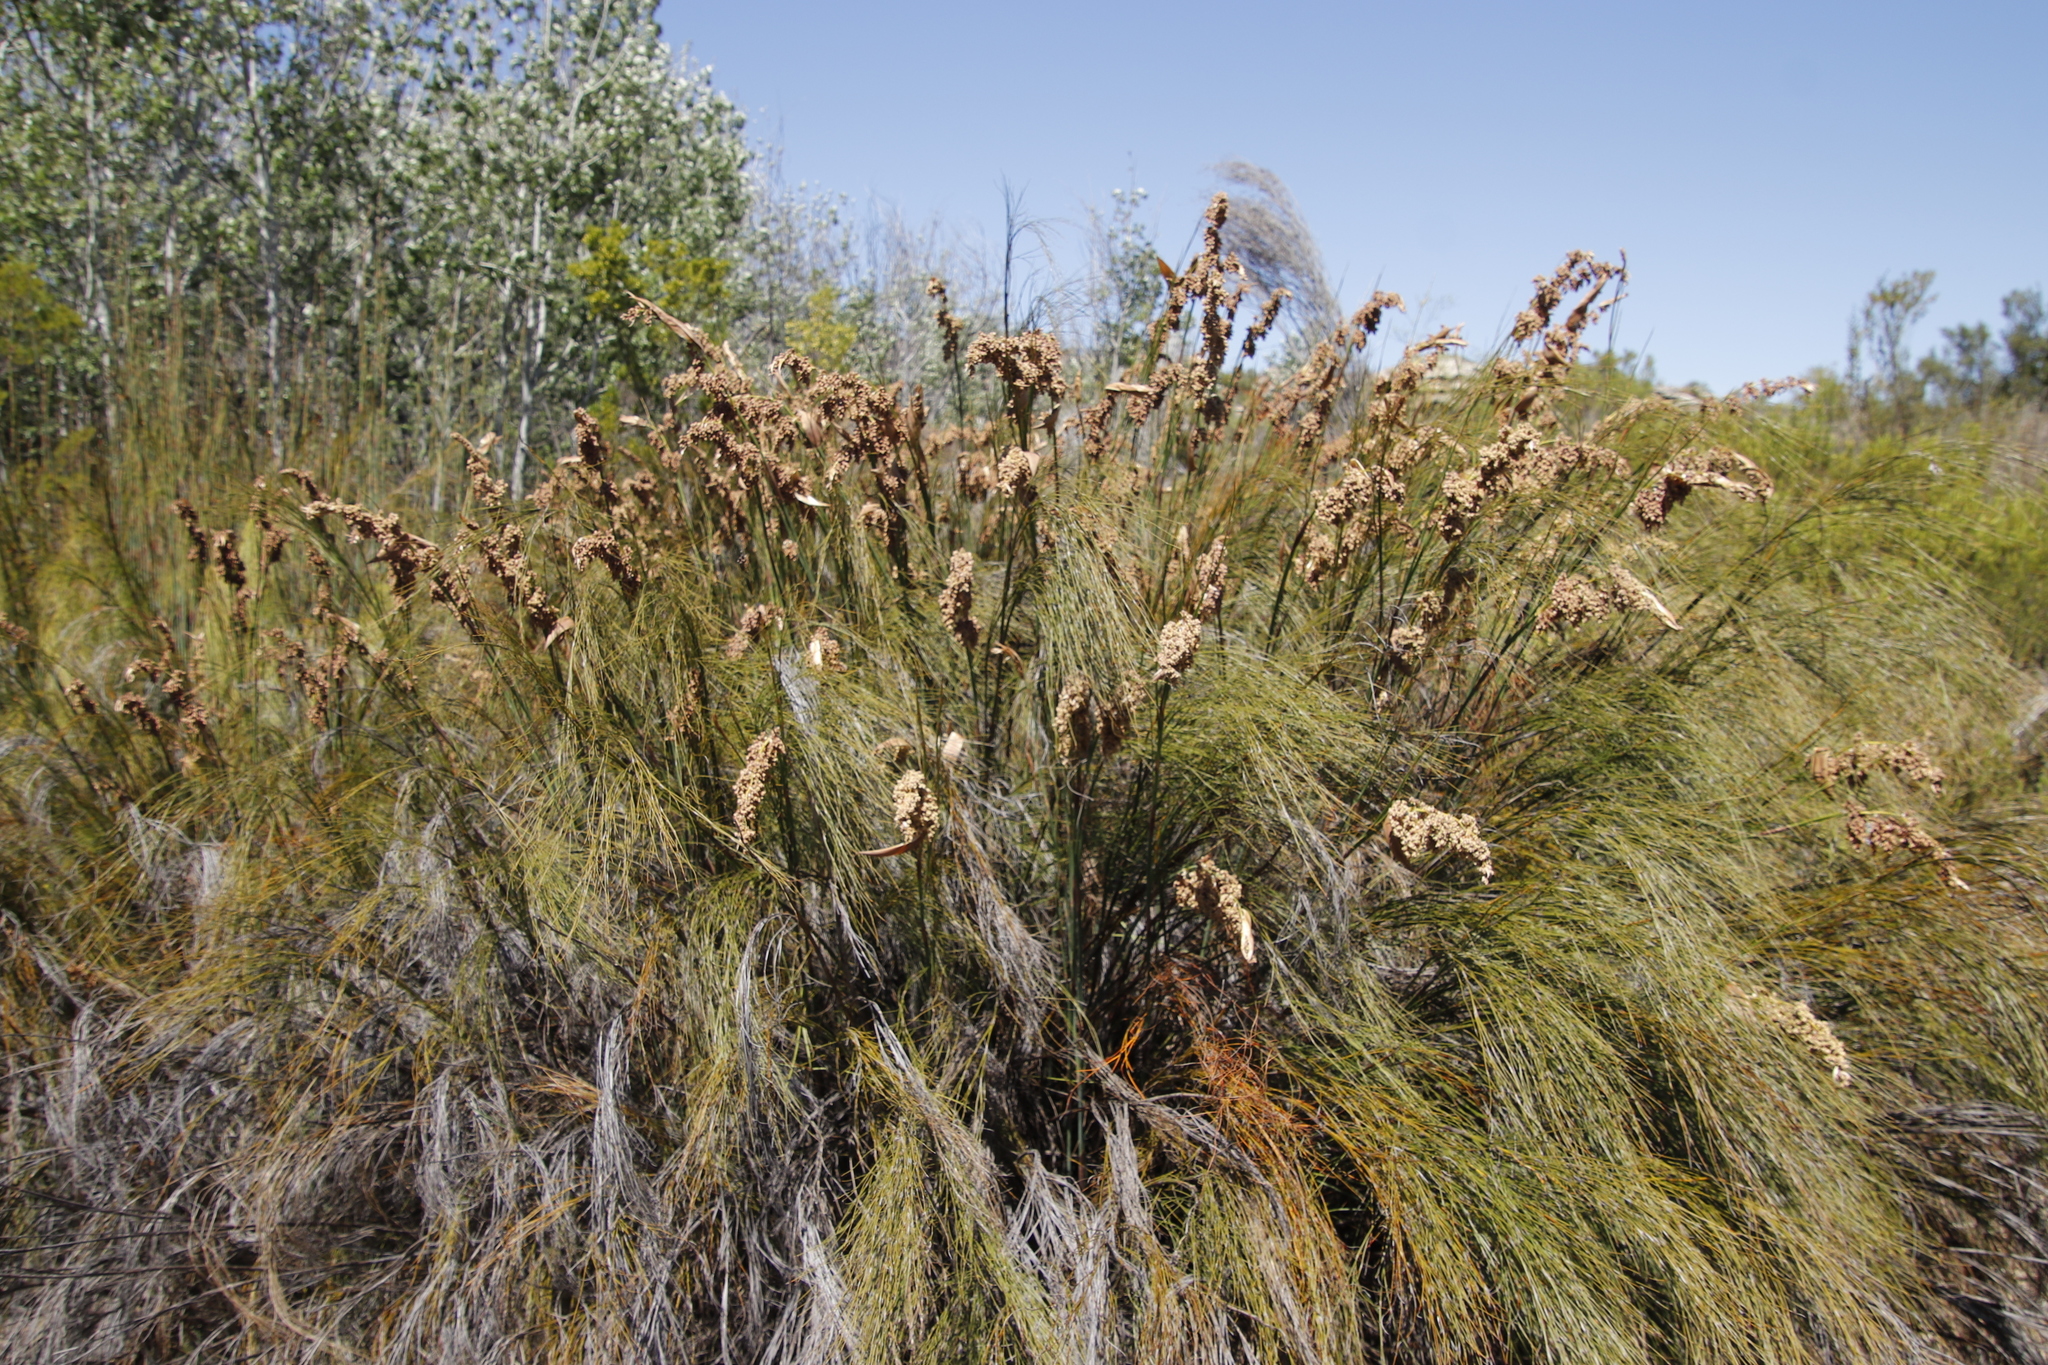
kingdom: Plantae
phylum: Tracheophyta
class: Liliopsida
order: Poales
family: Restionaceae
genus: Cannomois
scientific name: Cannomois robusta
